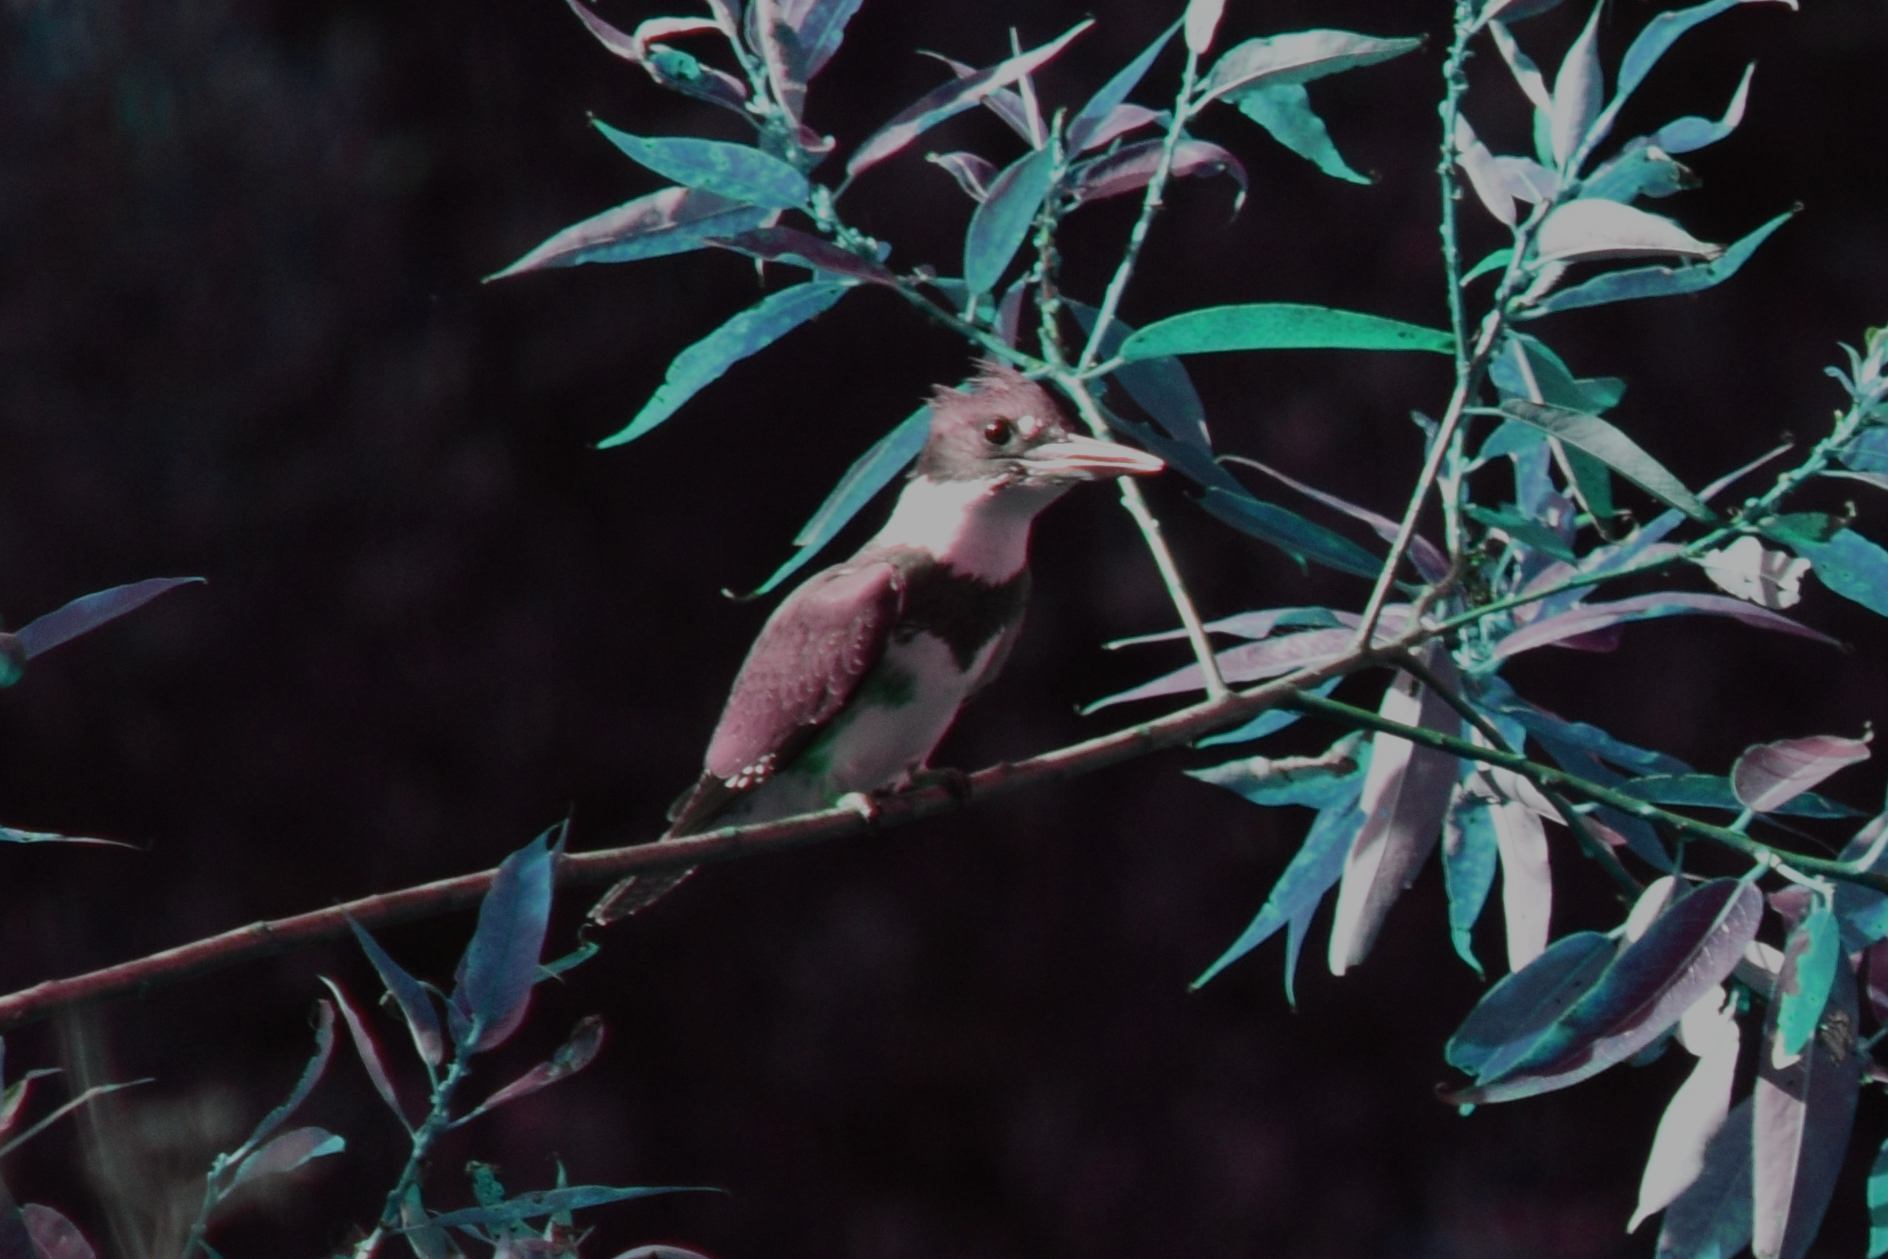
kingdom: Animalia
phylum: Chordata
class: Aves
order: Coraciiformes
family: Alcedinidae
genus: Megaceryle
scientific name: Megaceryle alcyon
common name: Belted kingfisher
